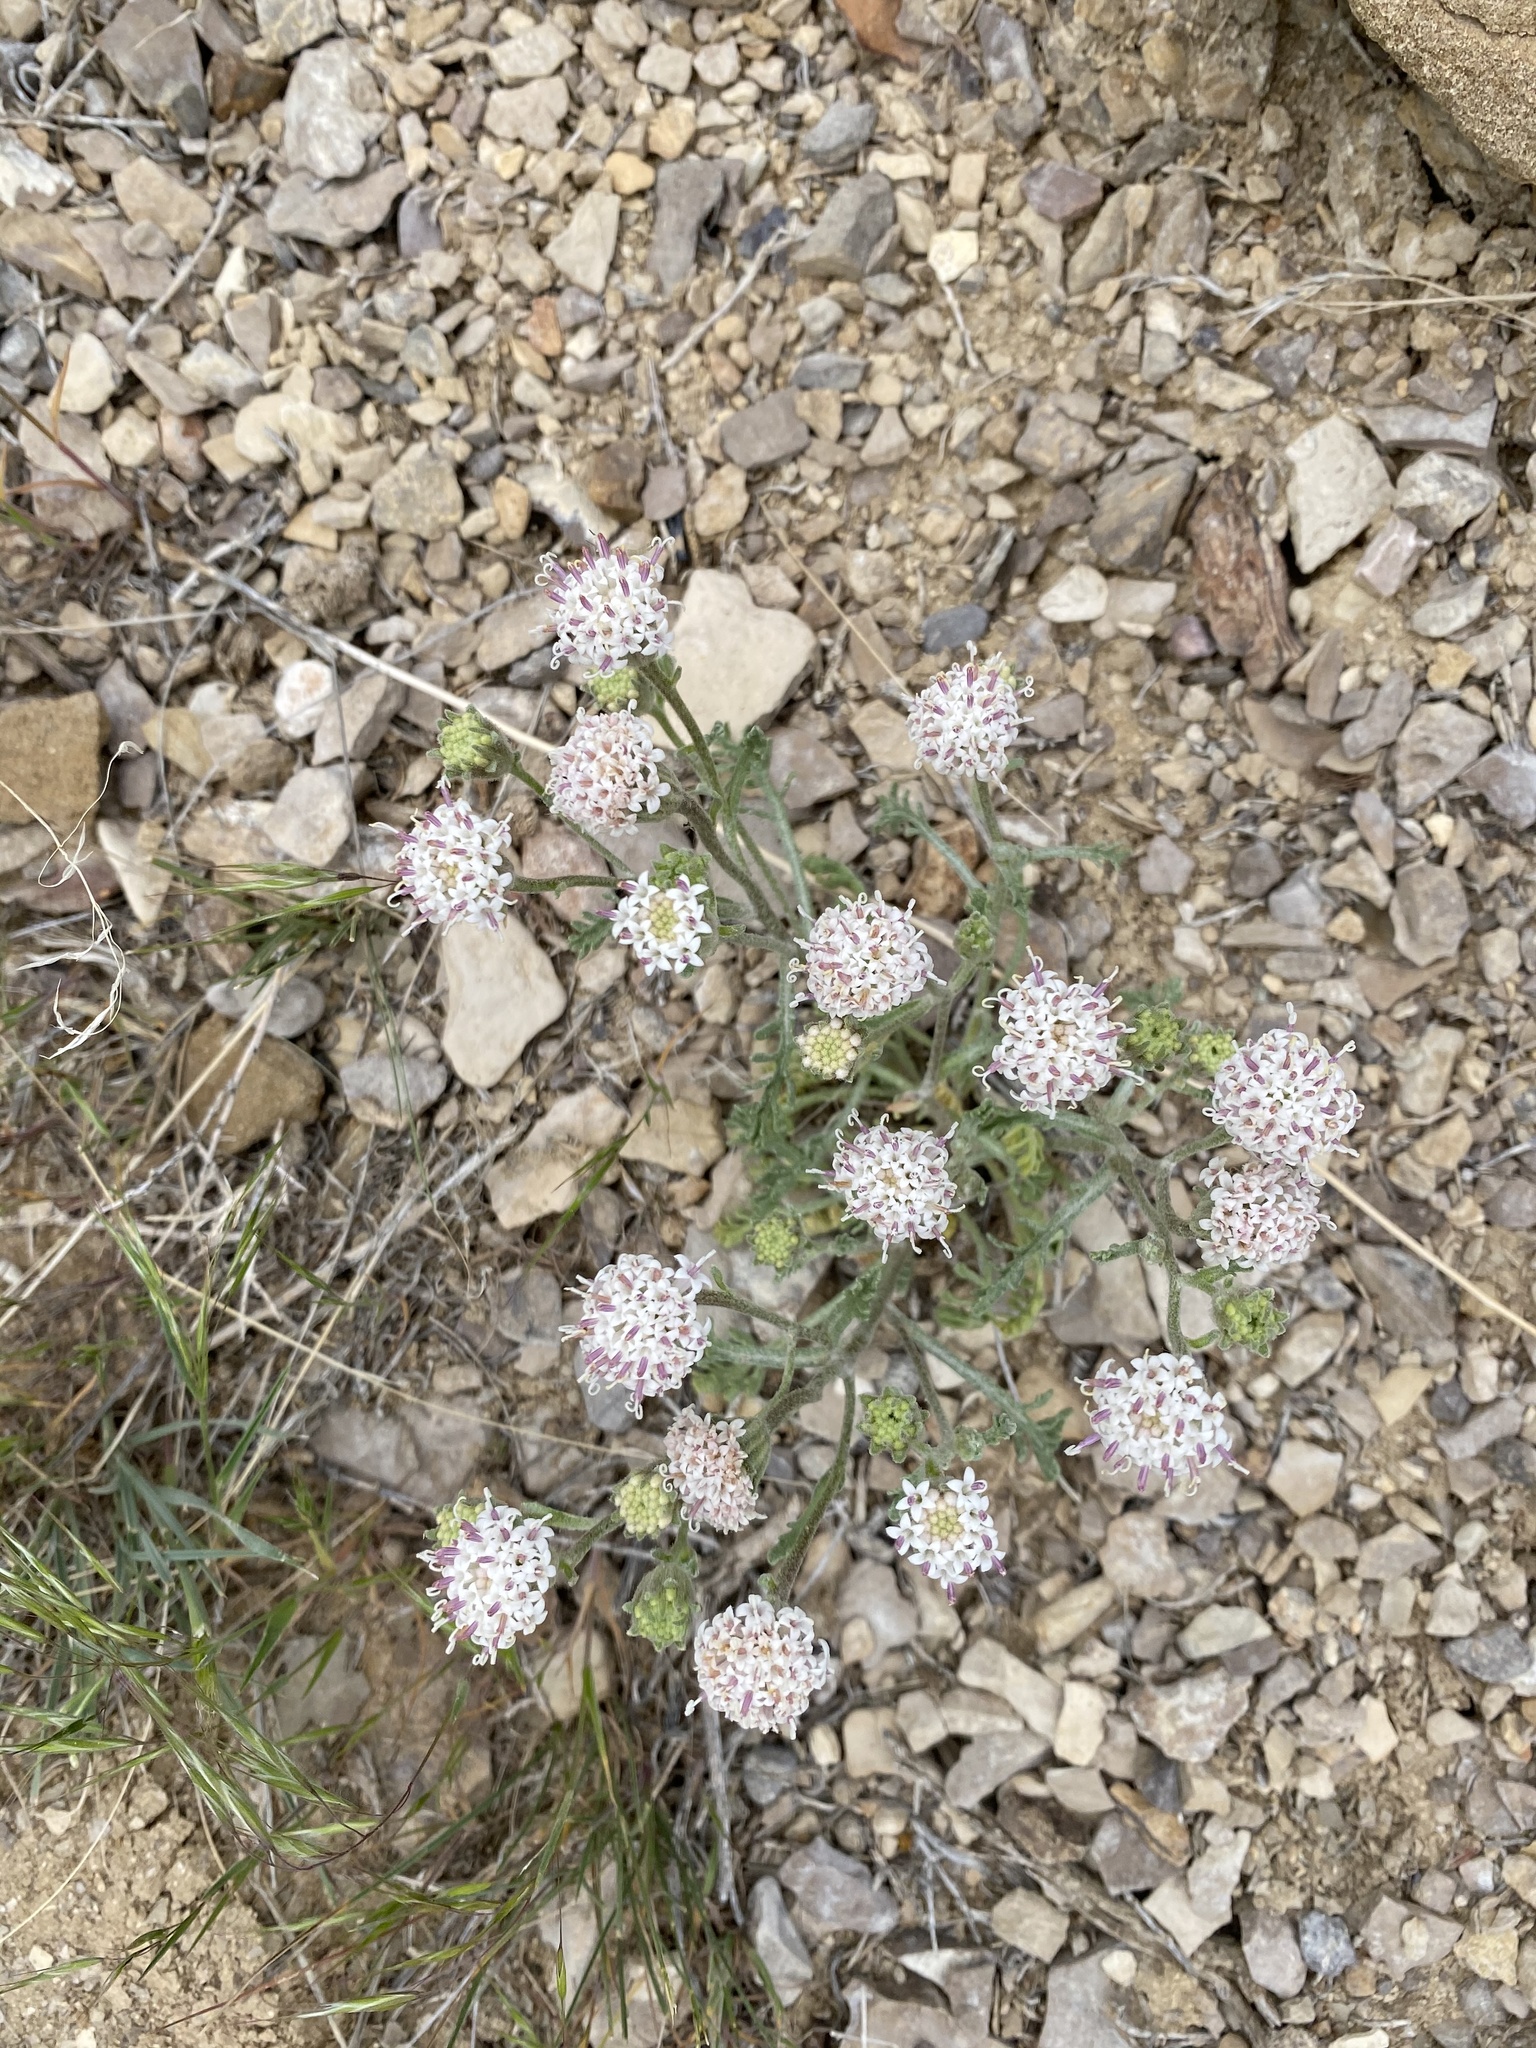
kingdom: Plantae
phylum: Tracheophyta
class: Magnoliopsida
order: Asterales
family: Asteraceae
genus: Chaenactis
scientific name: Chaenactis douglasii
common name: Hoary pincushion
